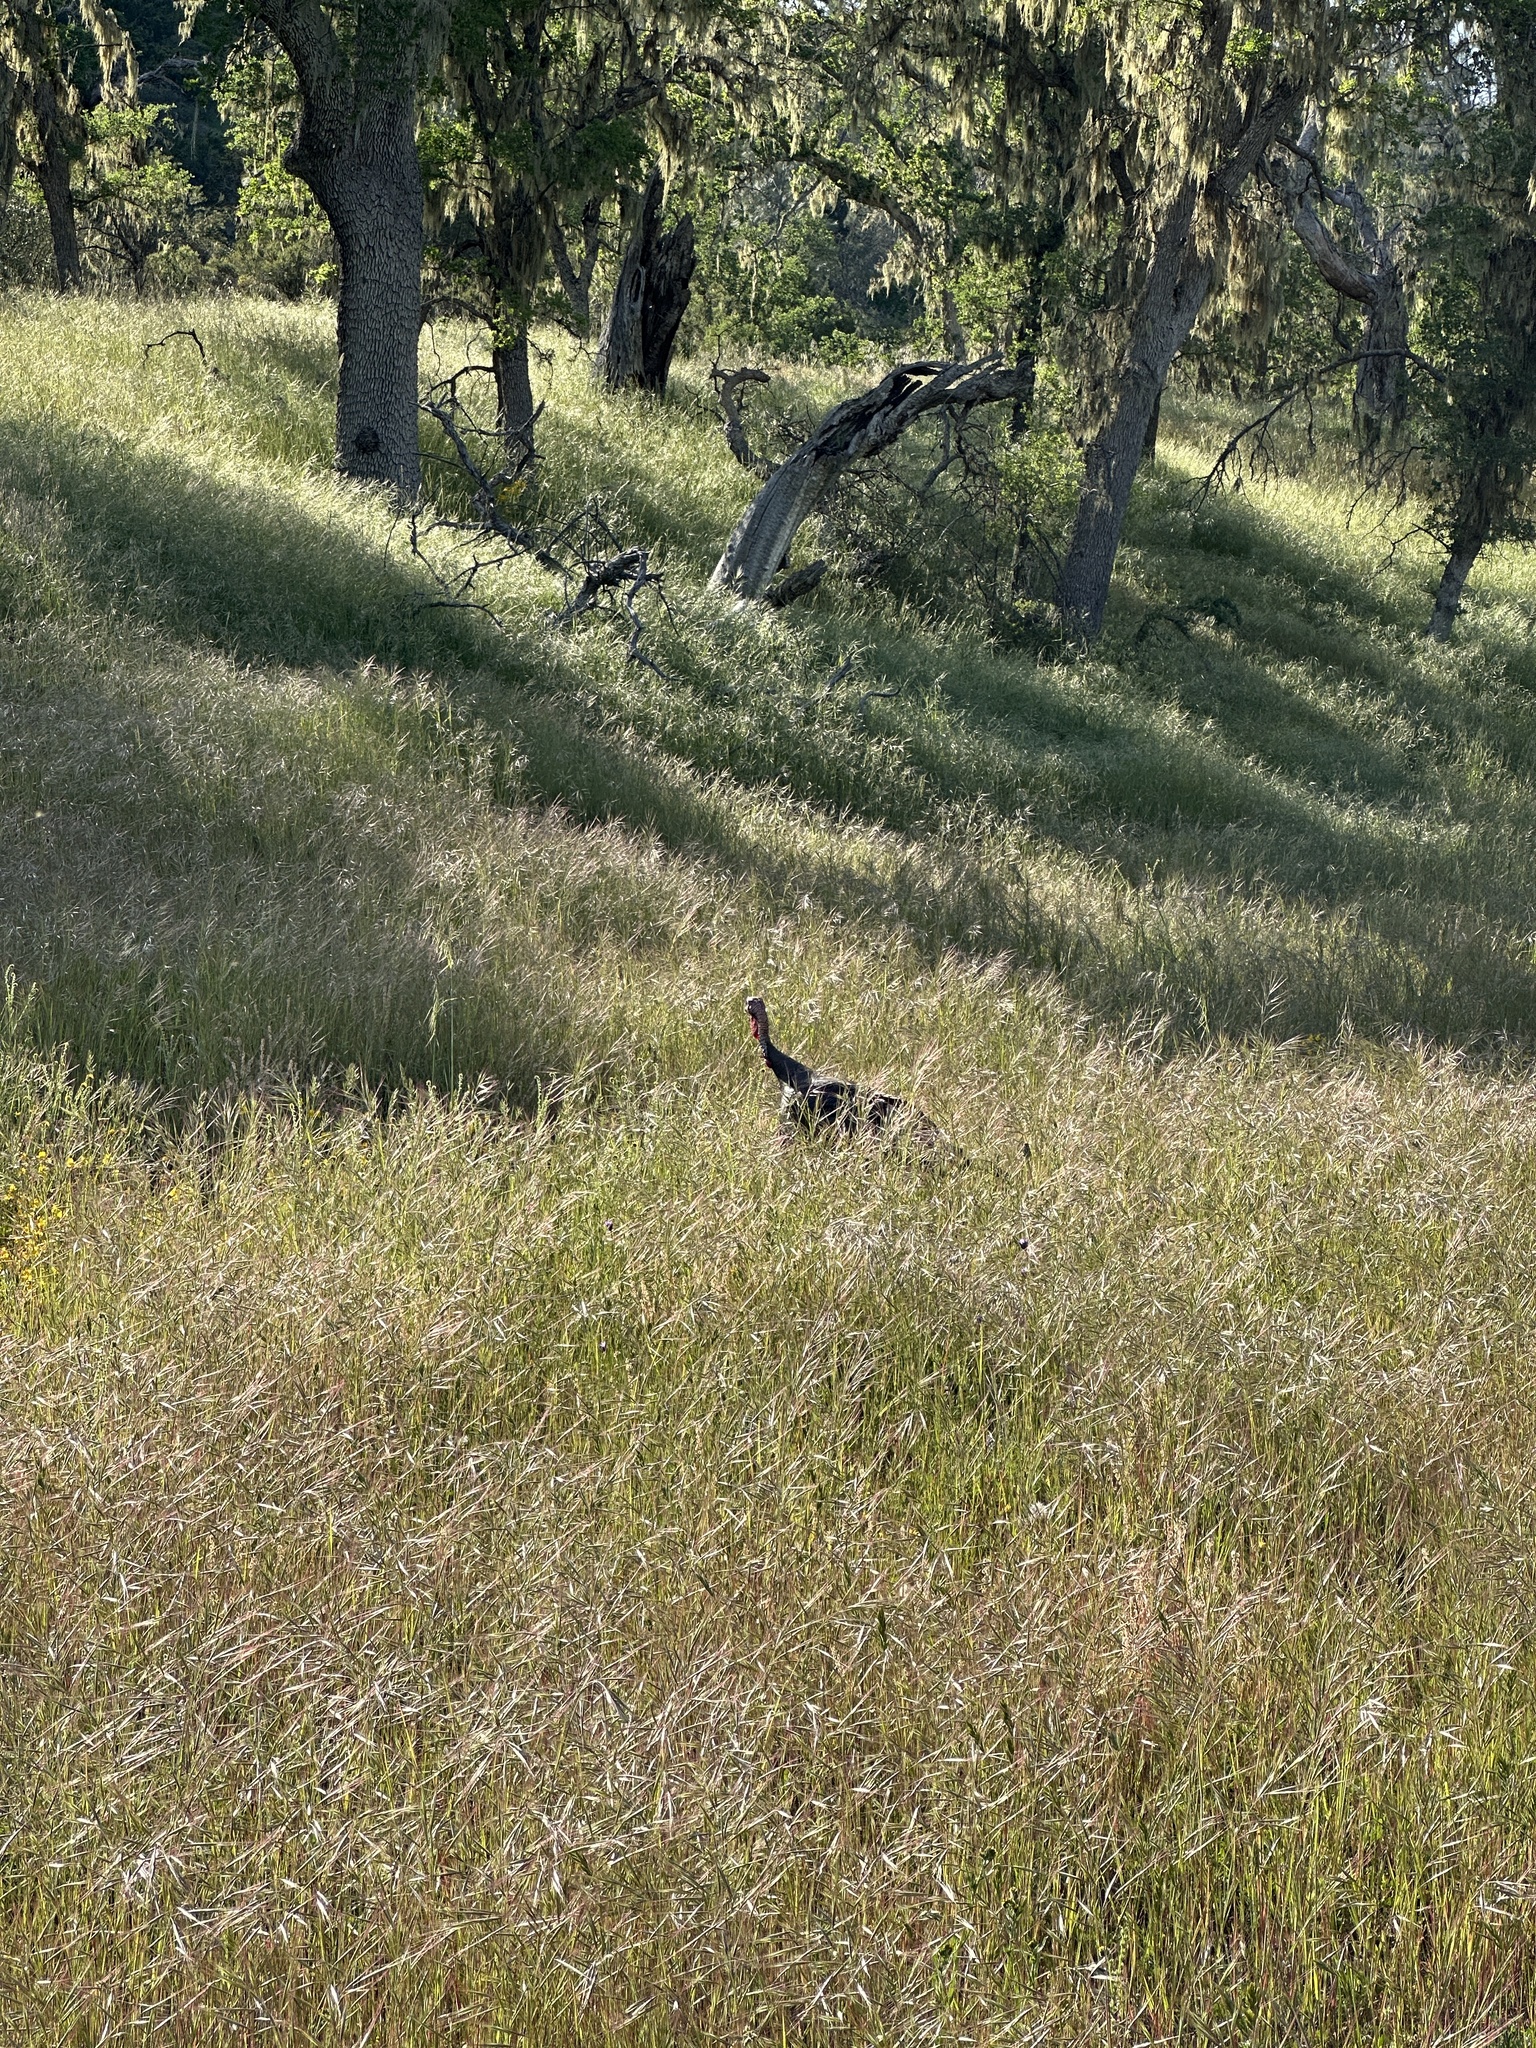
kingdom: Animalia
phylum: Chordata
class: Aves
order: Galliformes
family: Phasianidae
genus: Meleagris
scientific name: Meleagris gallopavo
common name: Wild turkey
